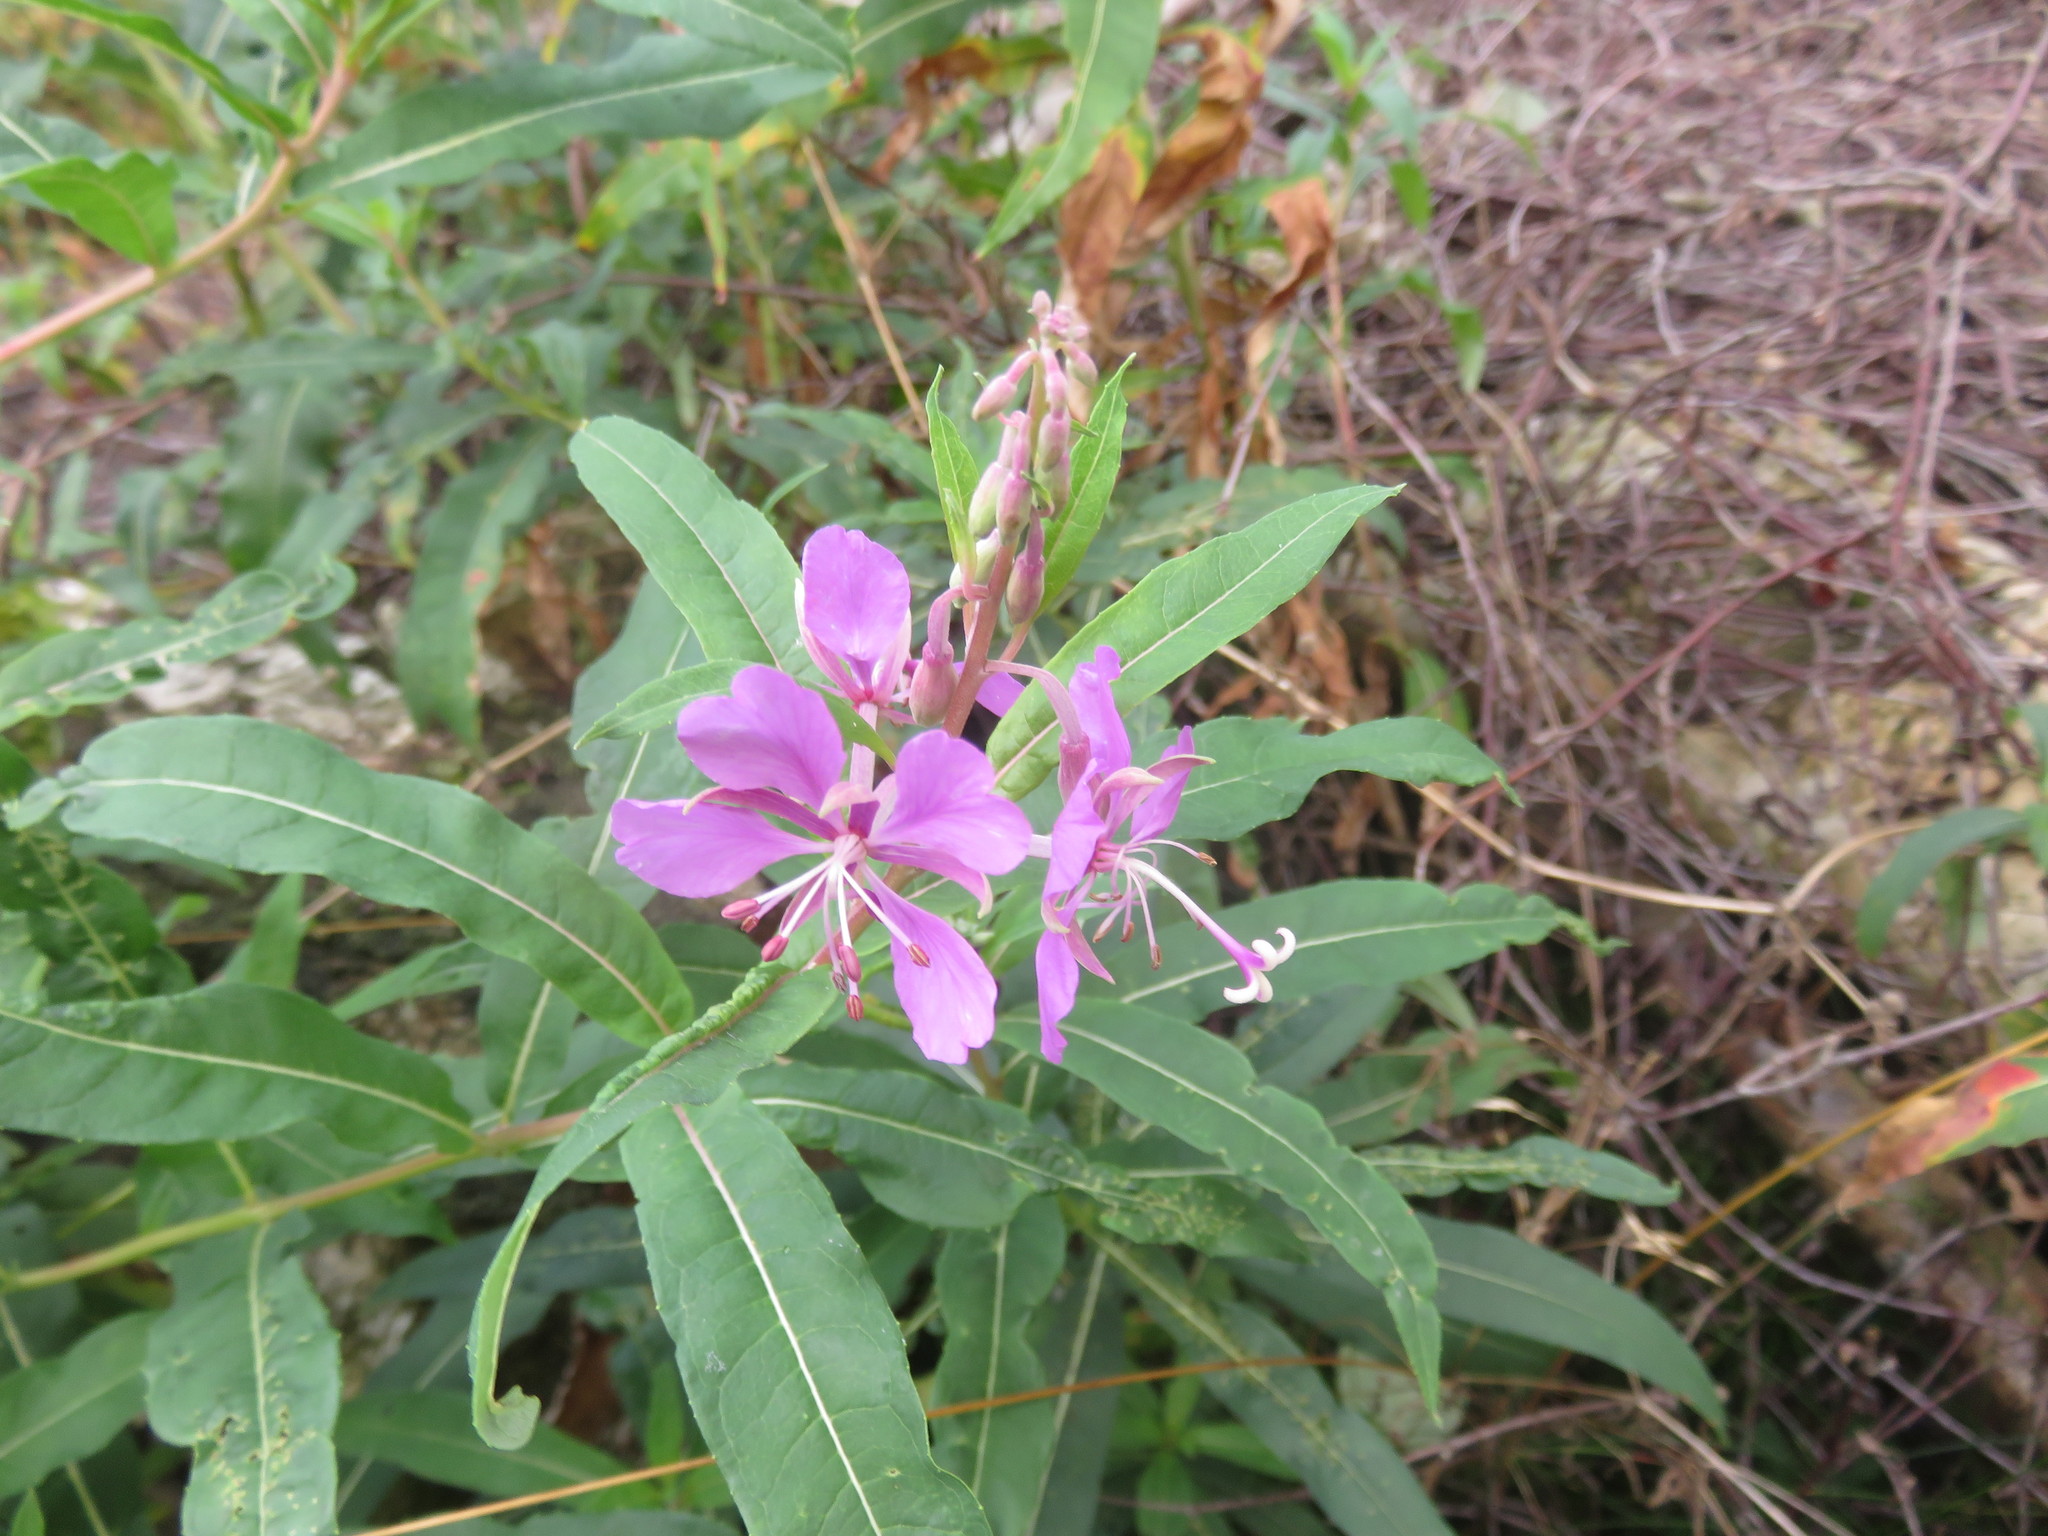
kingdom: Plantae
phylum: Tracheophyta
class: Magnoliopsida
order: Myrtales
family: Onagraceae
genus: Chamaenerion
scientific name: Chamaenerion angustifolium
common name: Fireweed
